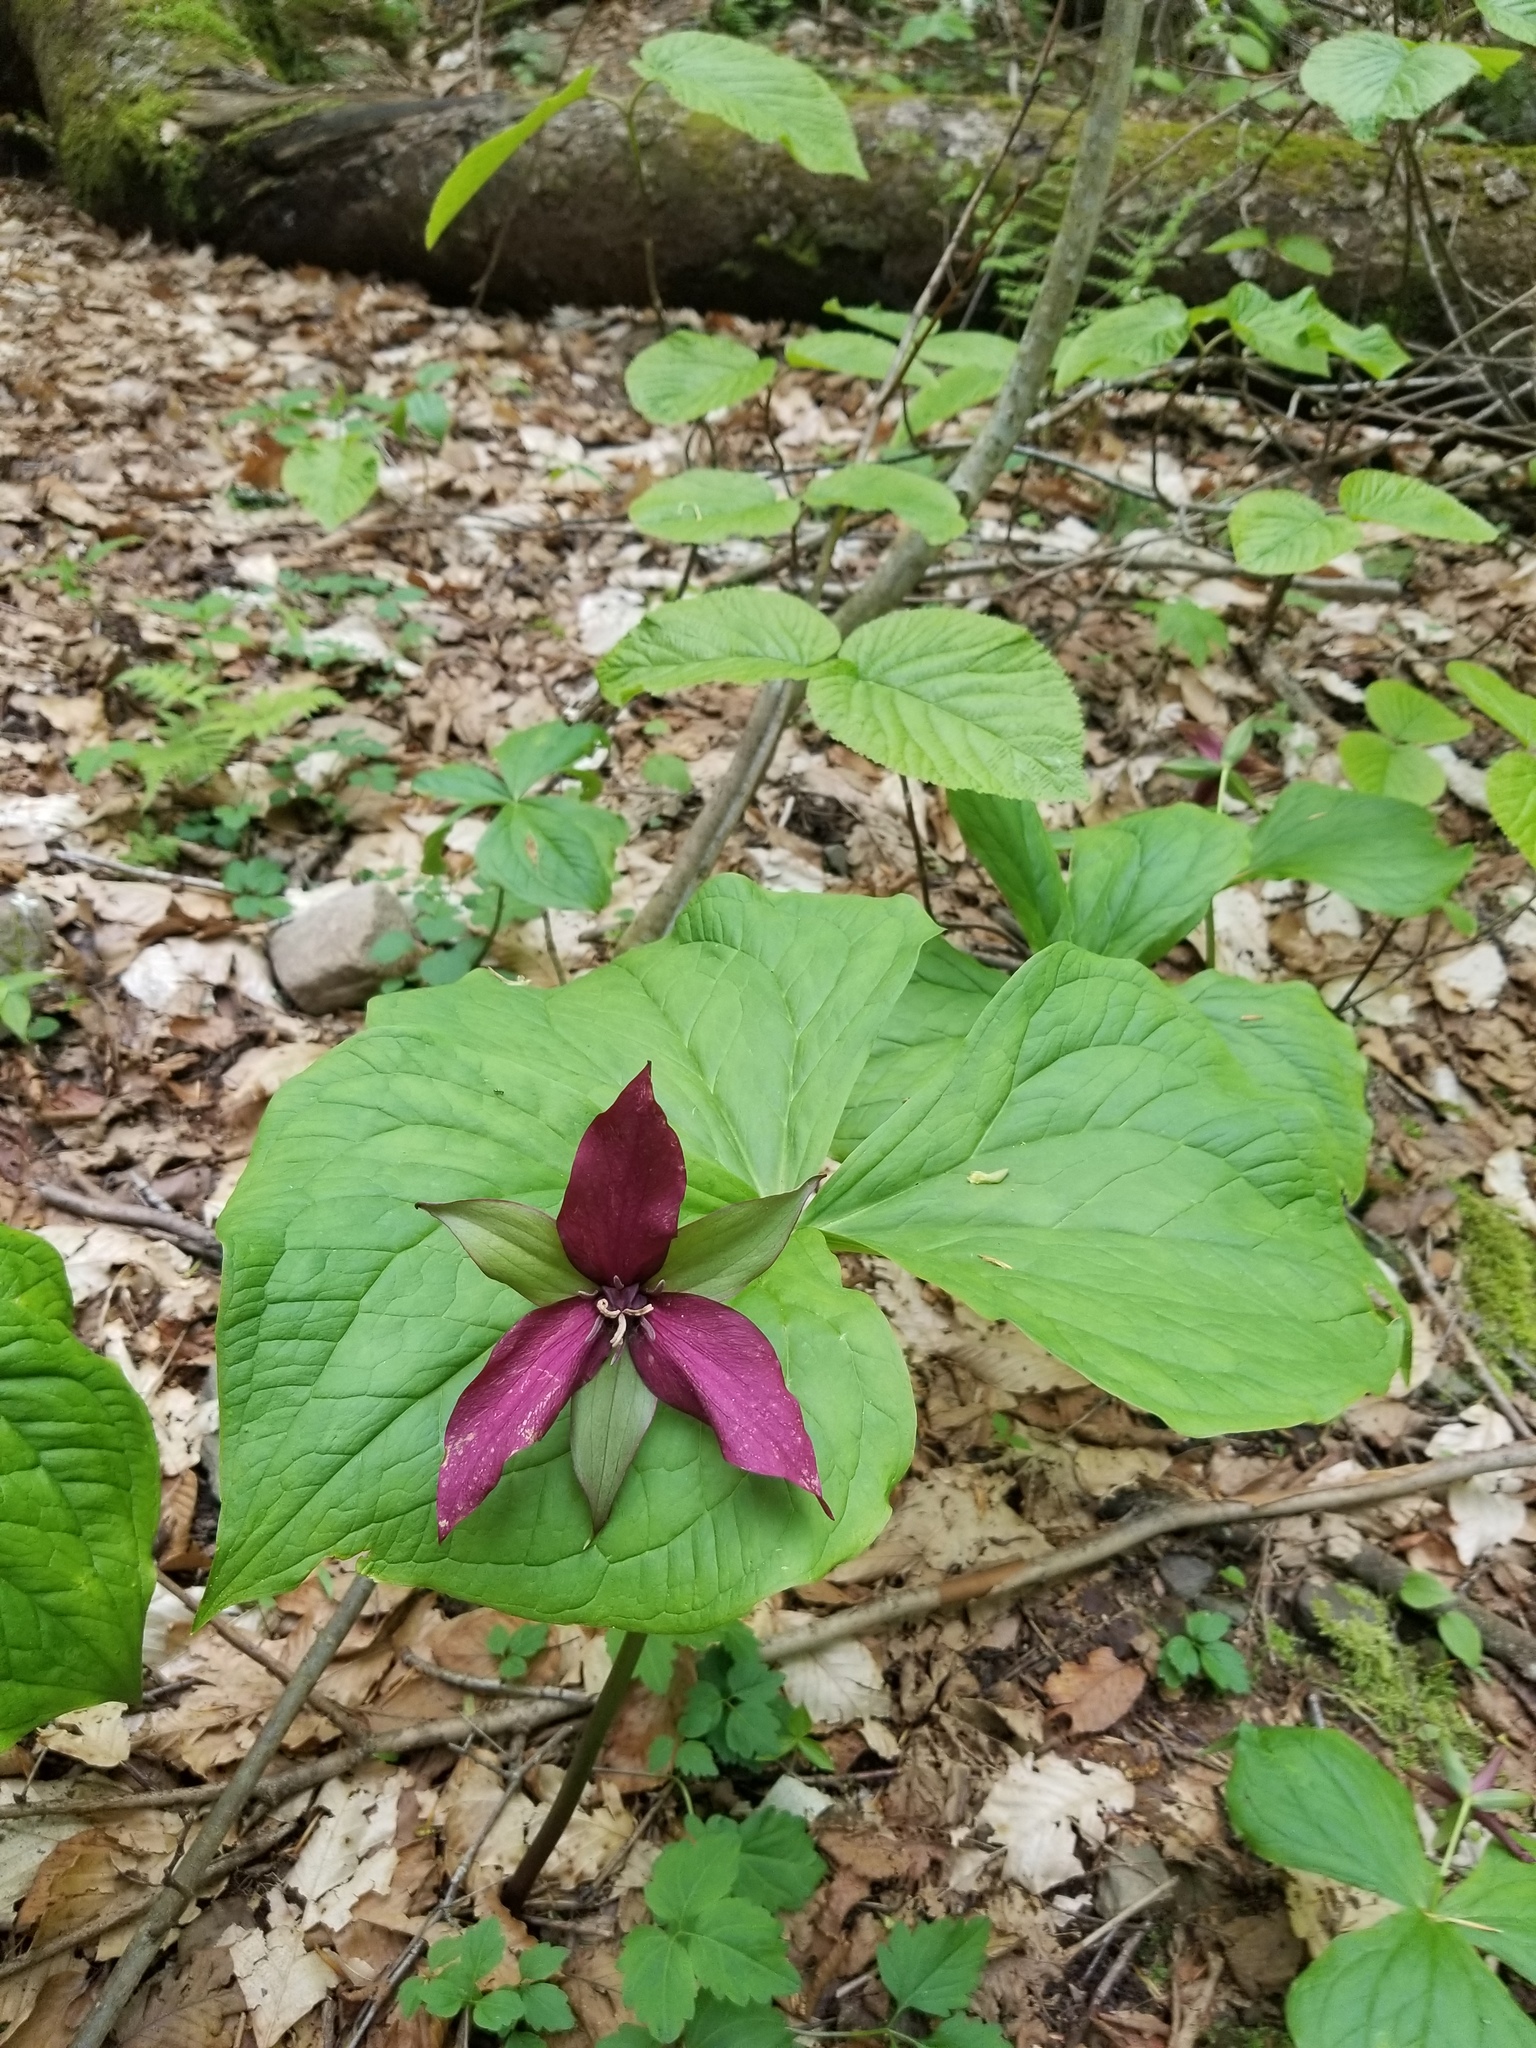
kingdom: Plantae
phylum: Tracheophyta
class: Liliopsida
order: Liliales
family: Melanthiaceae
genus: Trillium
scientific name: Trillium erectum
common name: Purple trillium
